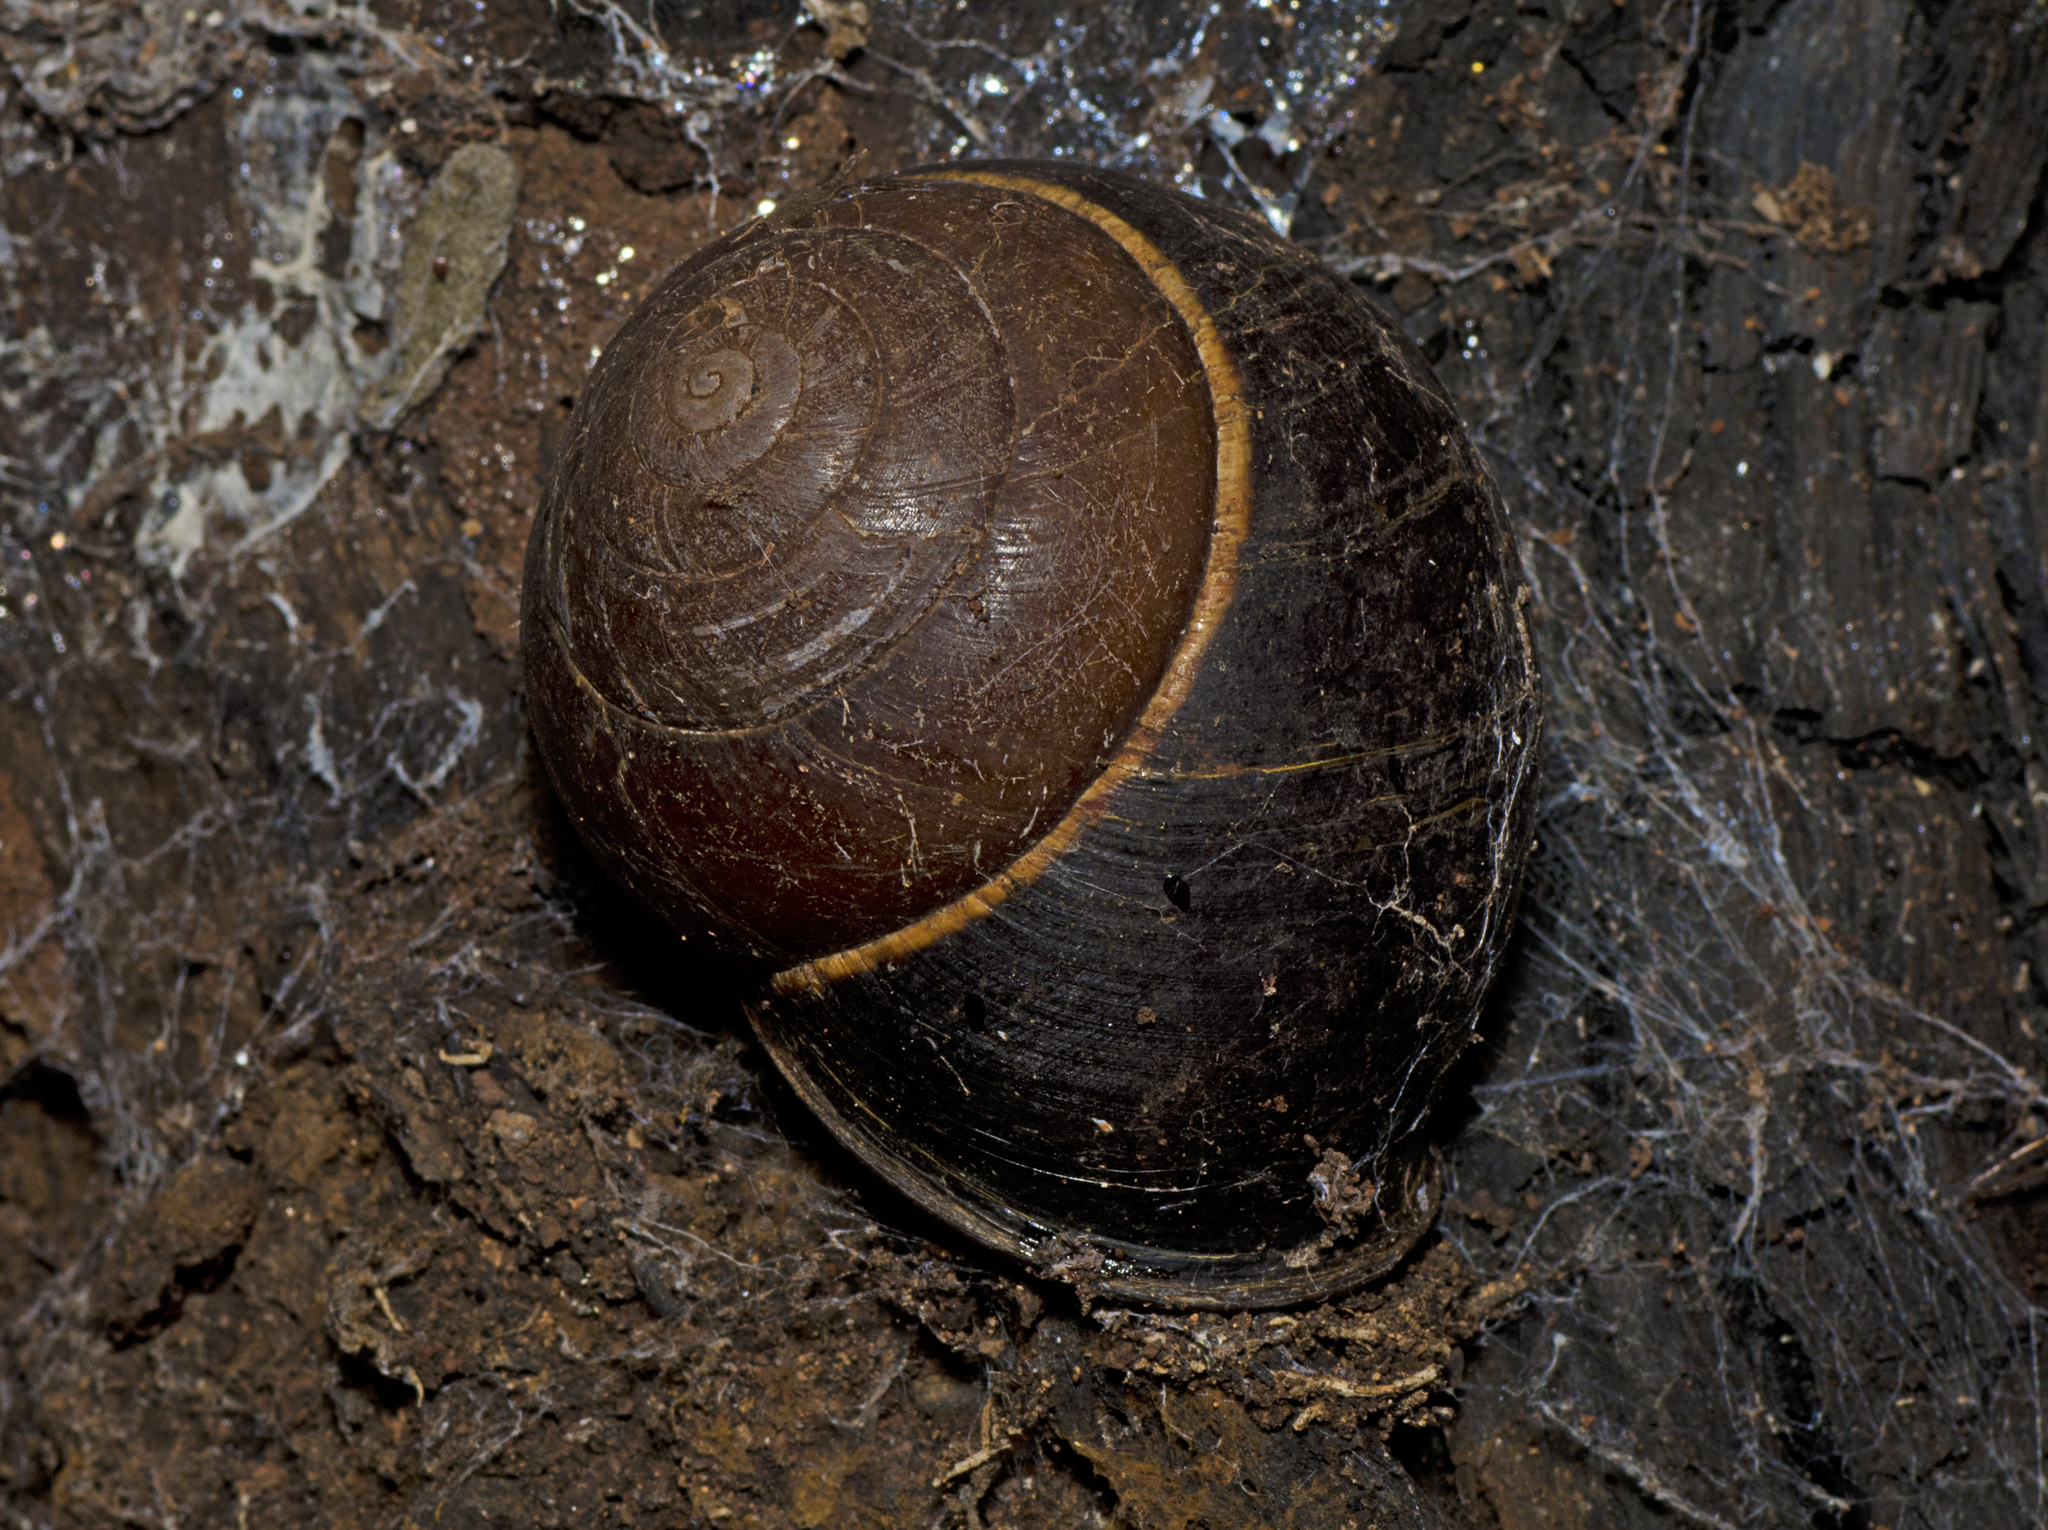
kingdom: Animalia
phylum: Mollusca
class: Gastropoda
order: Stylommatophora
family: Camaenidae
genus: Sphaerospira
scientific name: Sphaerospira blomfieldi
